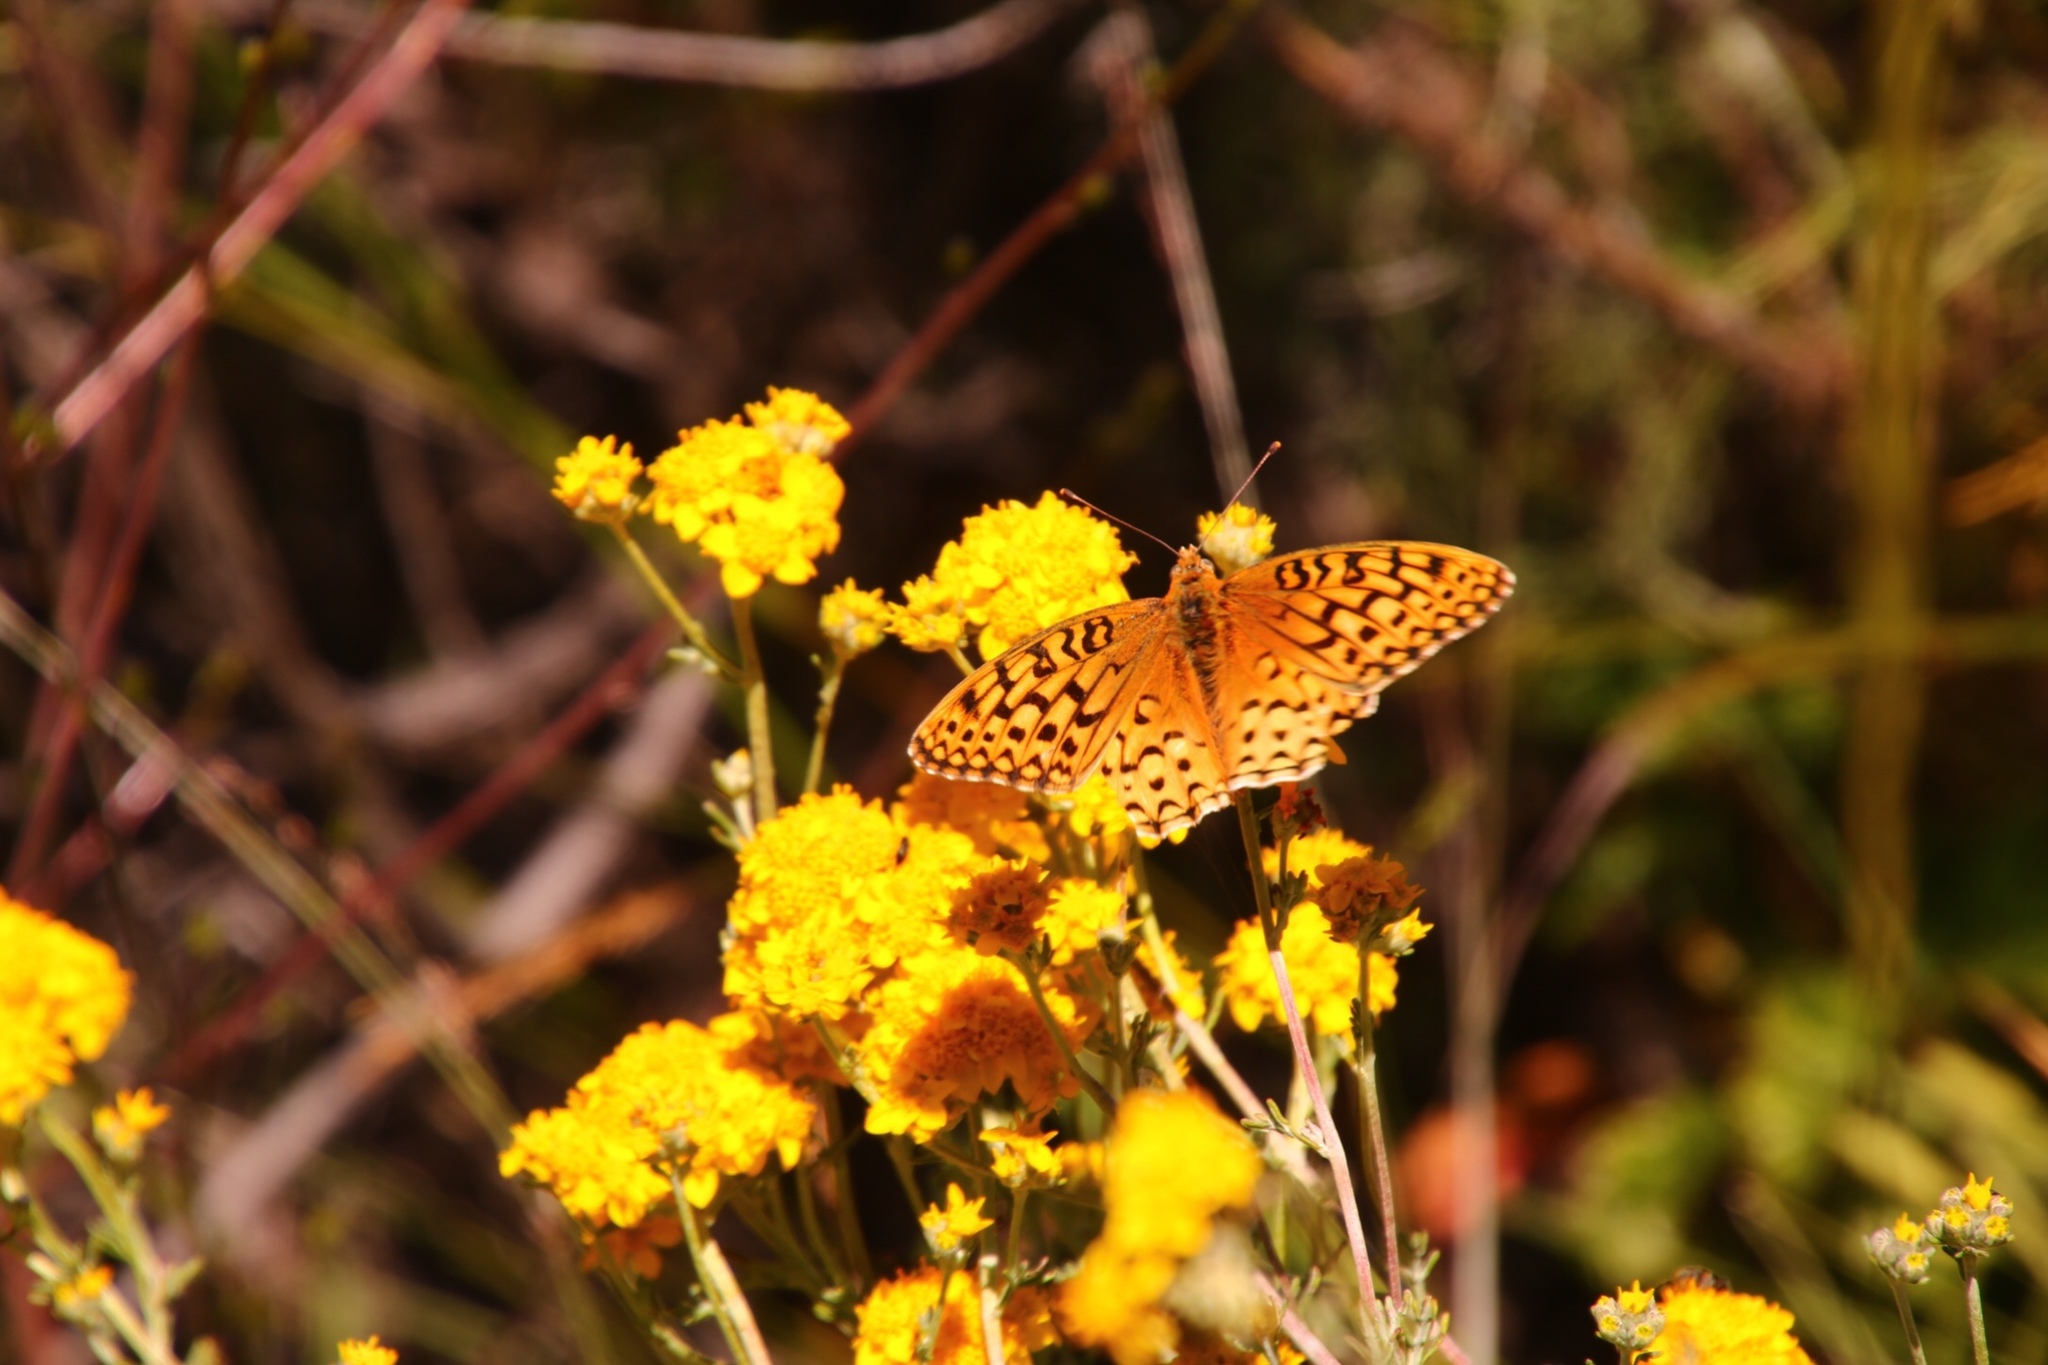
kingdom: Animalia
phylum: Arthropoda
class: Insecta
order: Lepidoptera
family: Nymphalidae
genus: Speyeria
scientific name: Speyeria callippe
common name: Callippe fritillary
